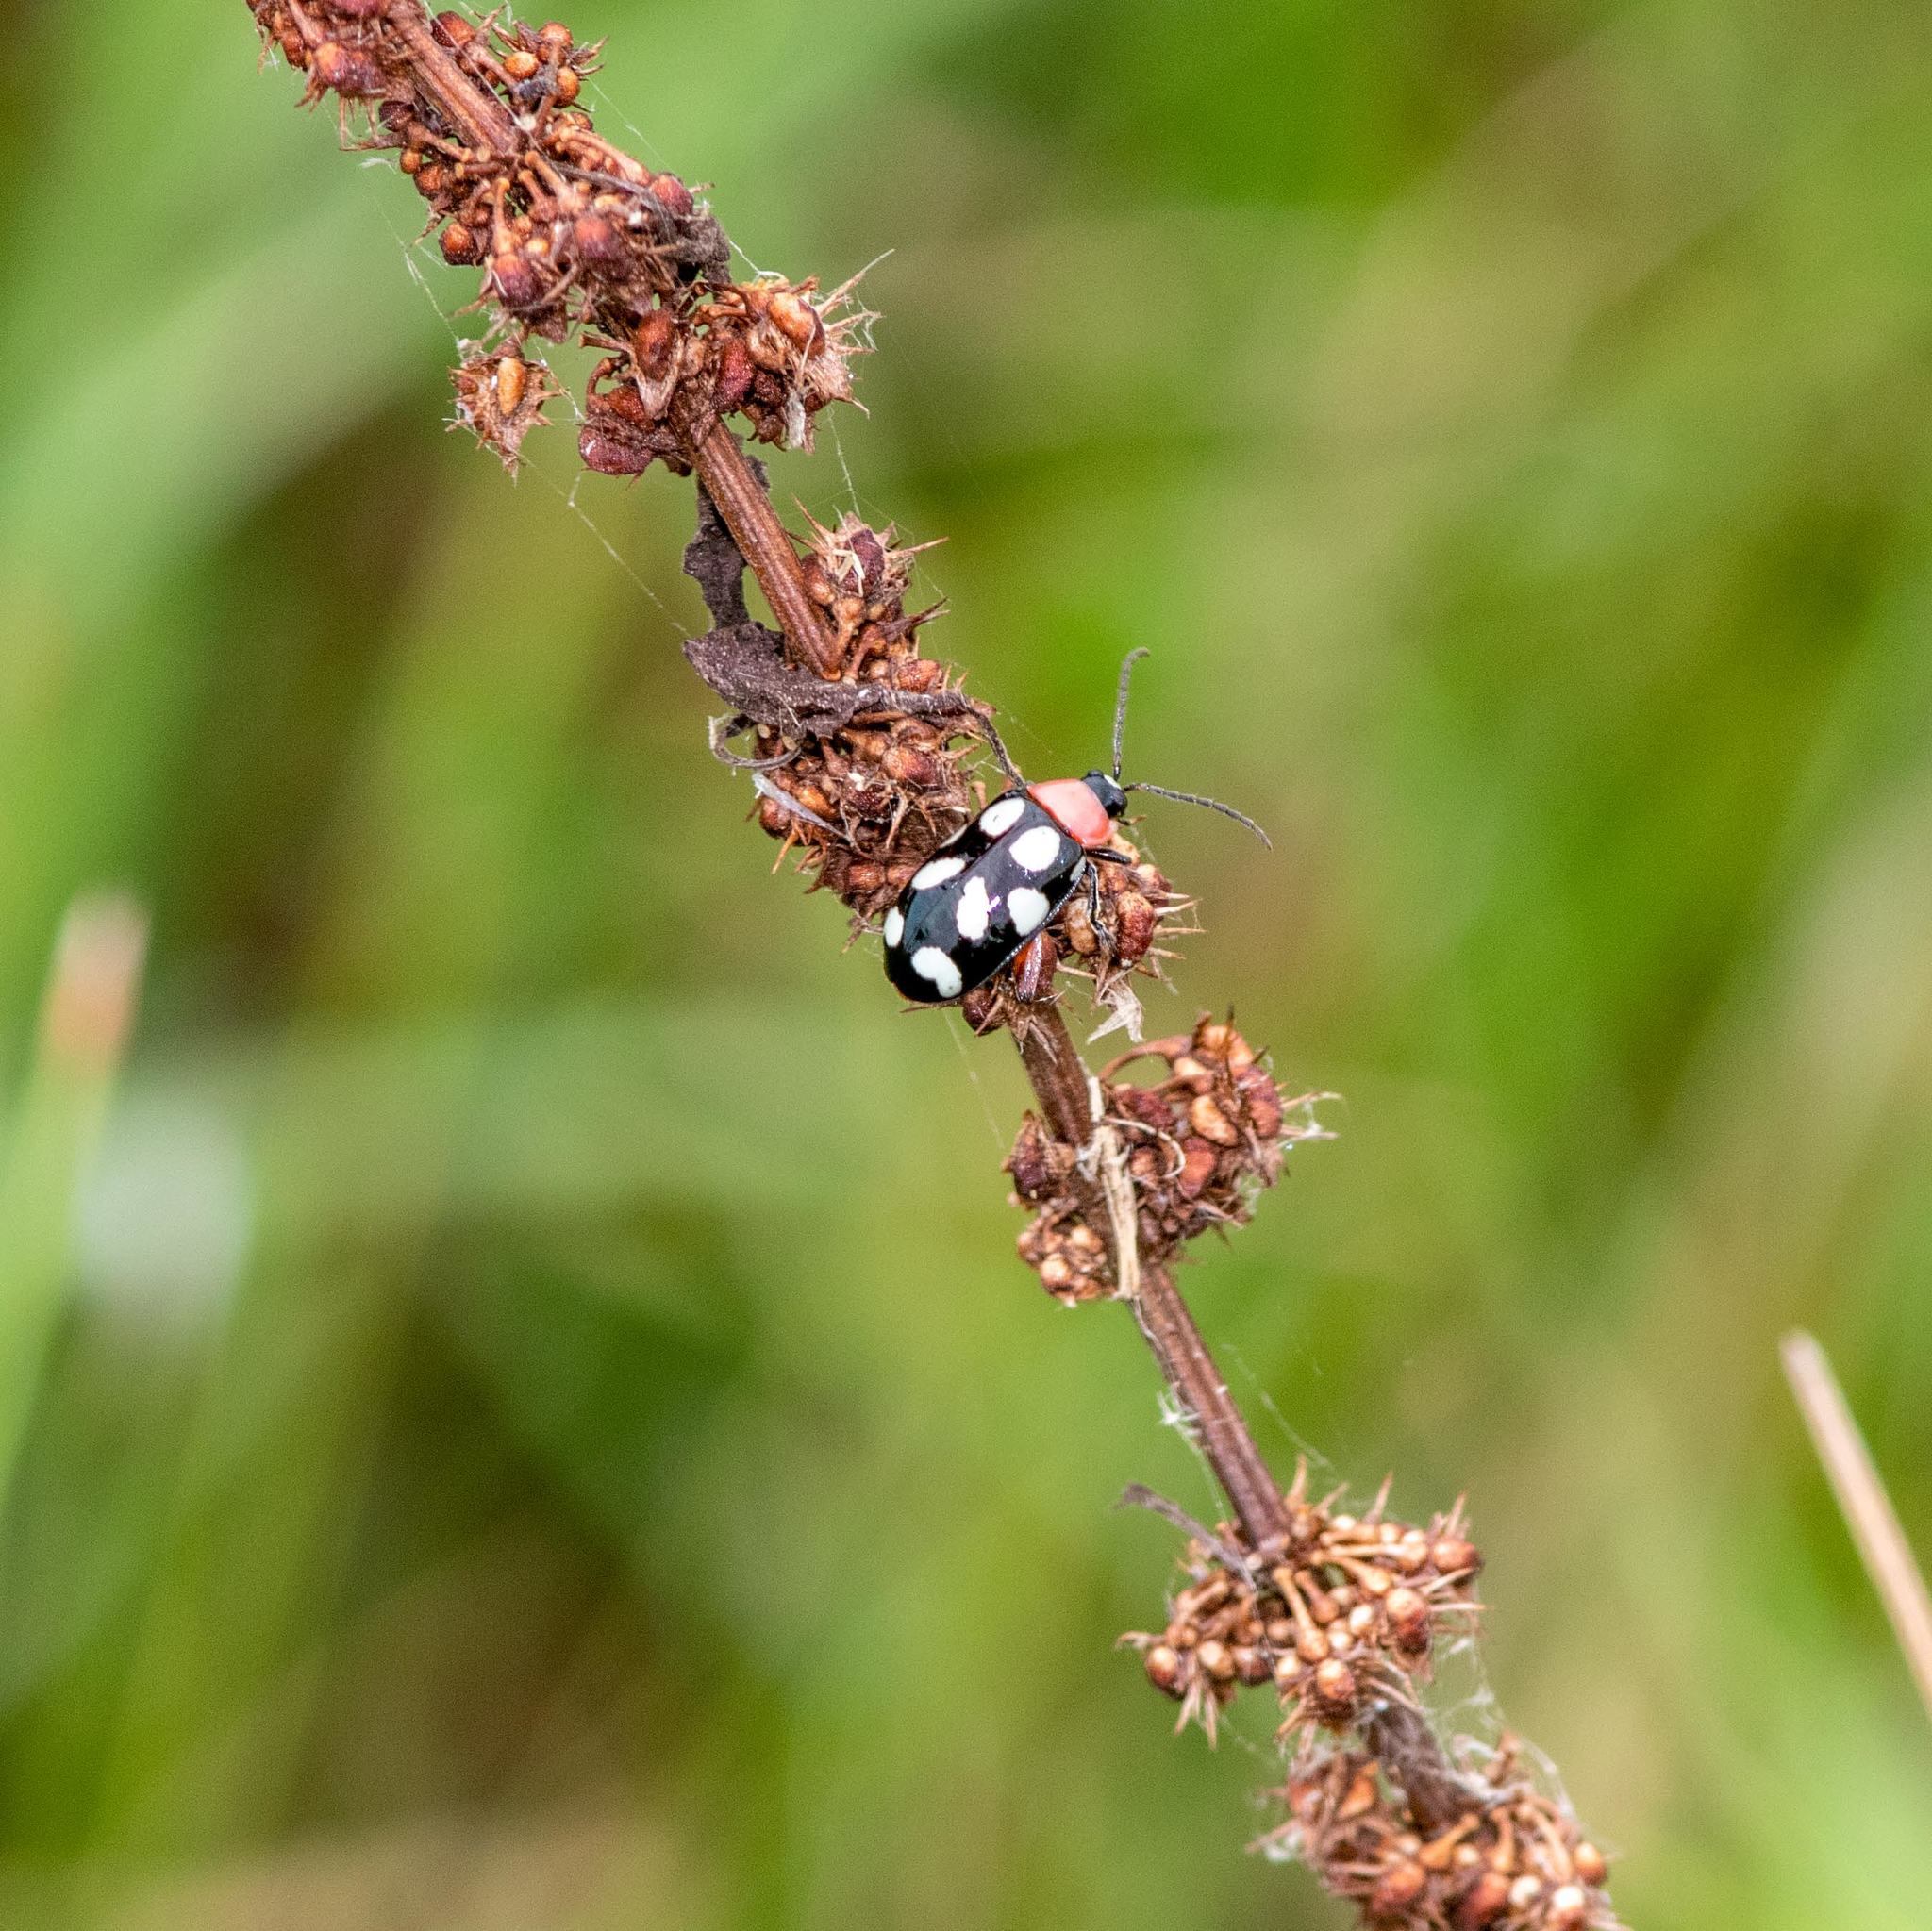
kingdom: Animalia
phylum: Arthropoda
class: Insecta
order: Coleoptera
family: Chrysomelidae
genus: Omophoita
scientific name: Omophoita cyanipennis
